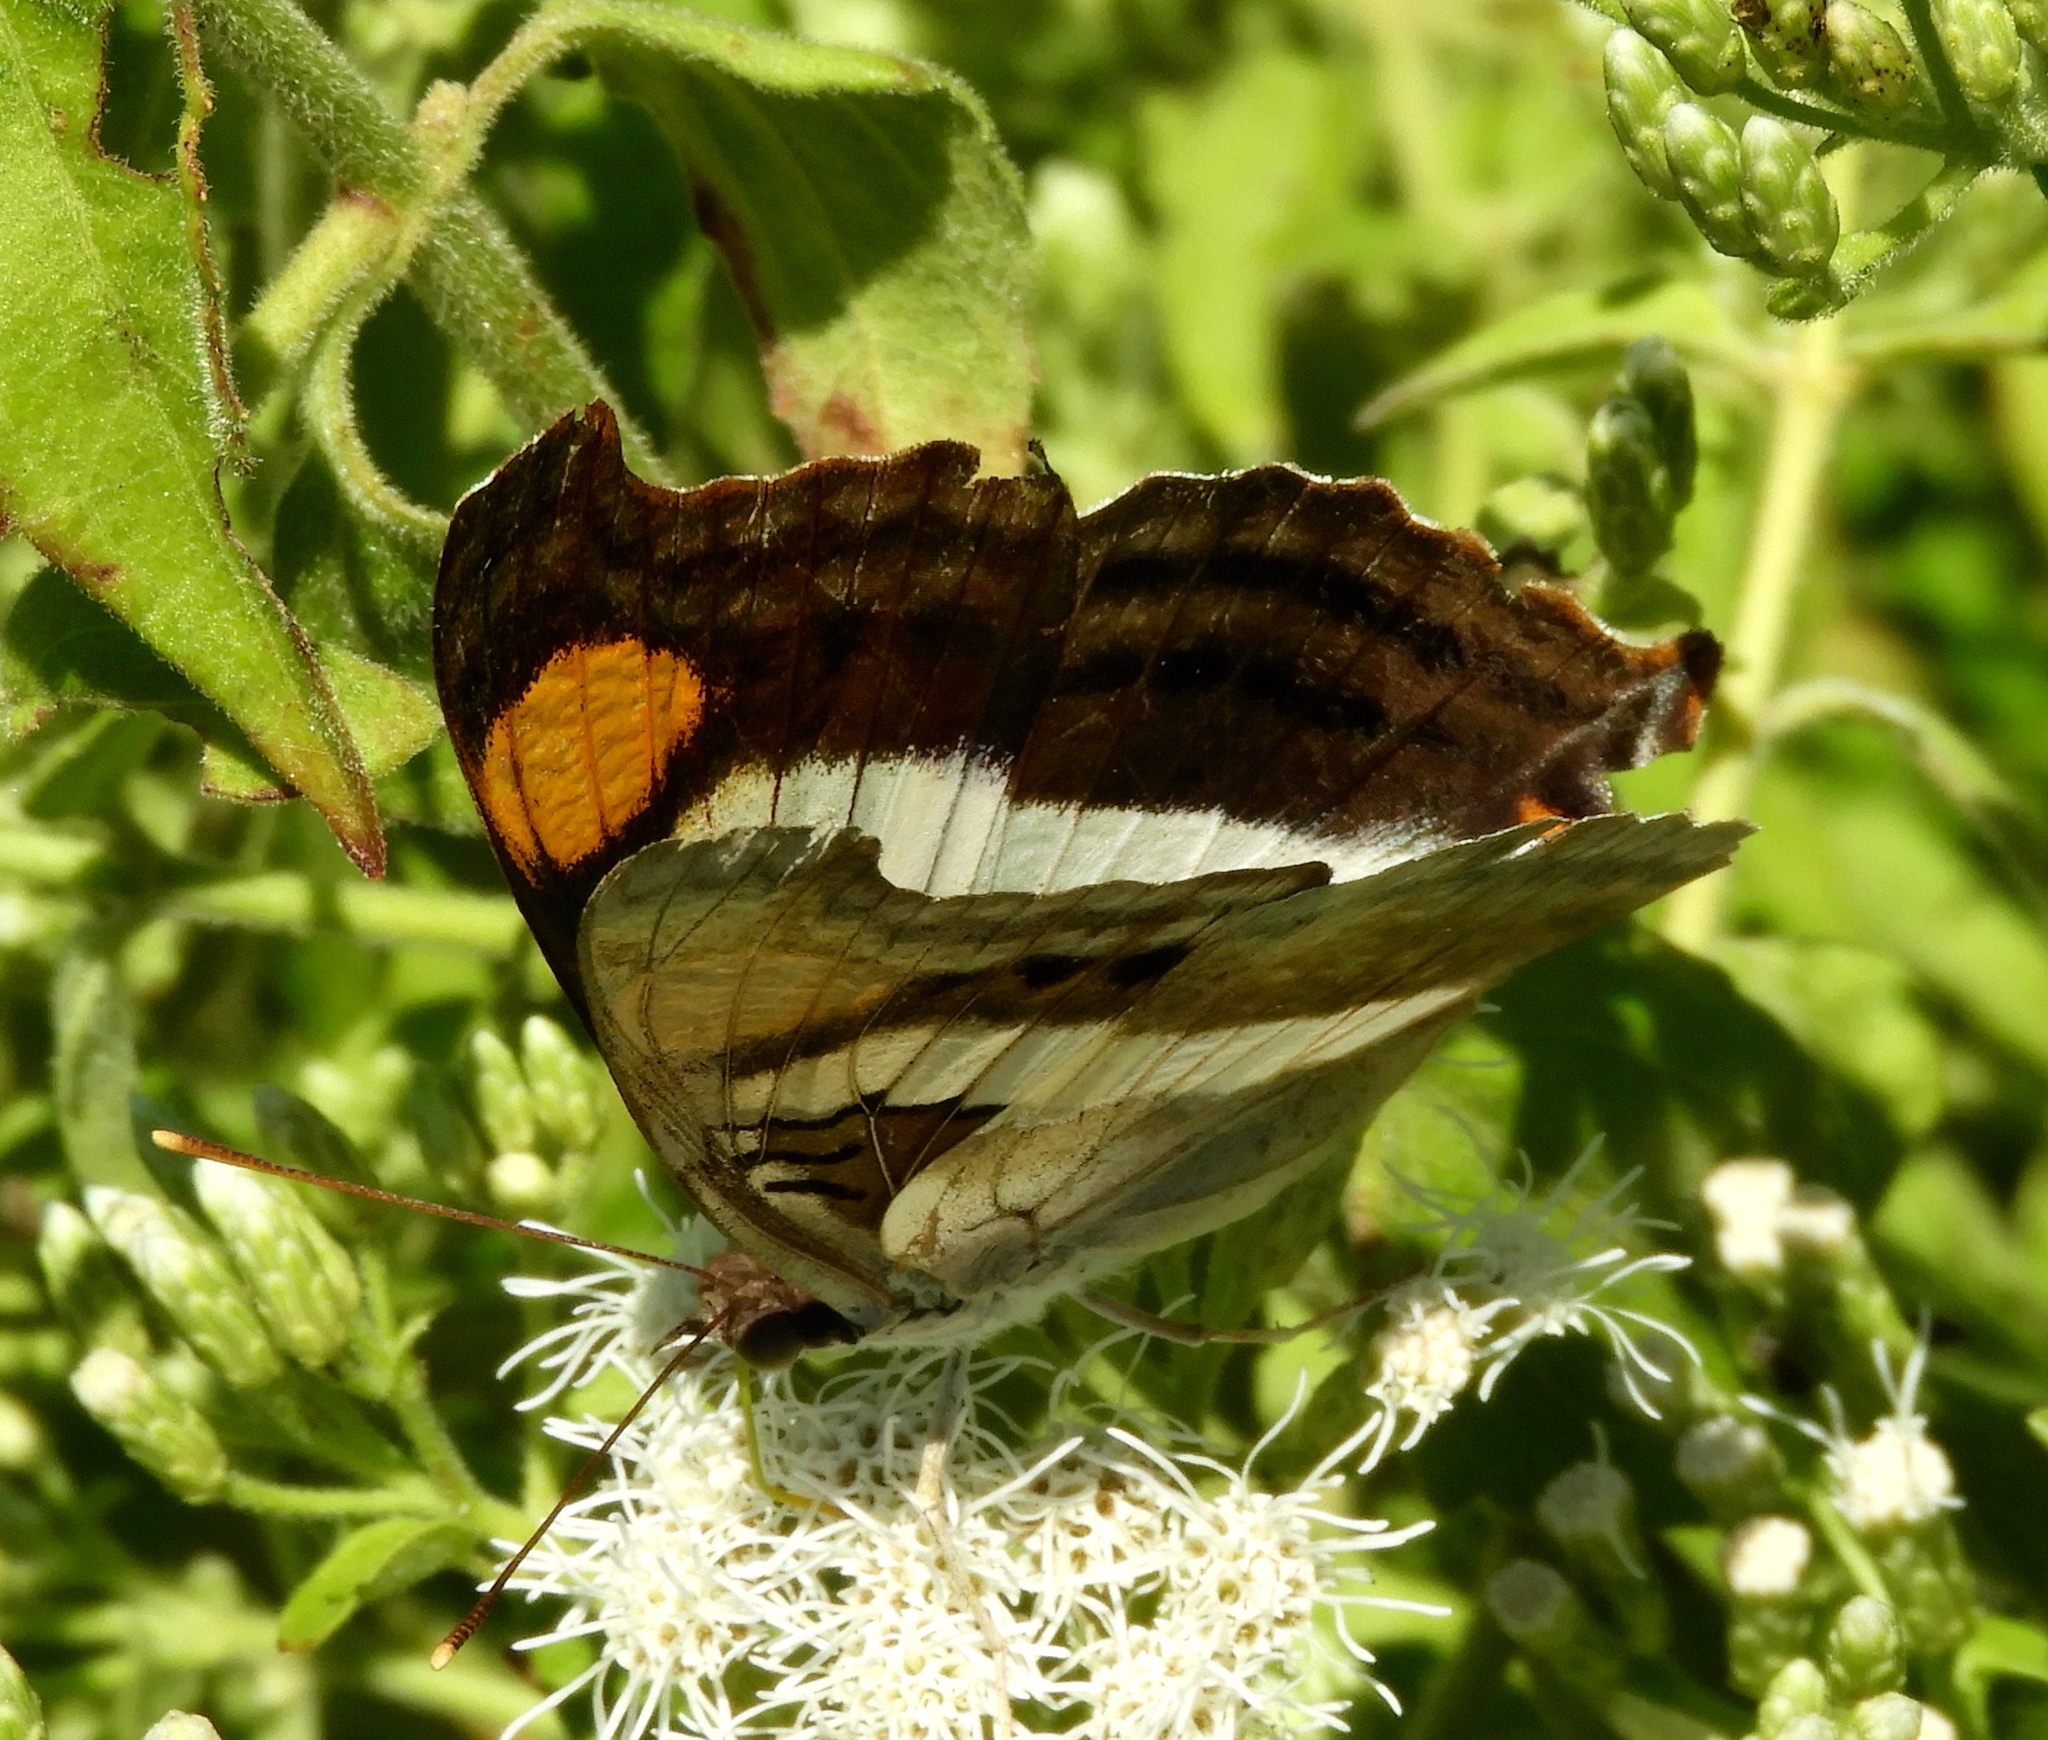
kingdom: Animalia
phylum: Arthropoda
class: Insecta
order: Lepidoptera
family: Nymphalidae
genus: Doxocopa
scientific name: Doxocopa laure
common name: Silver emperor
